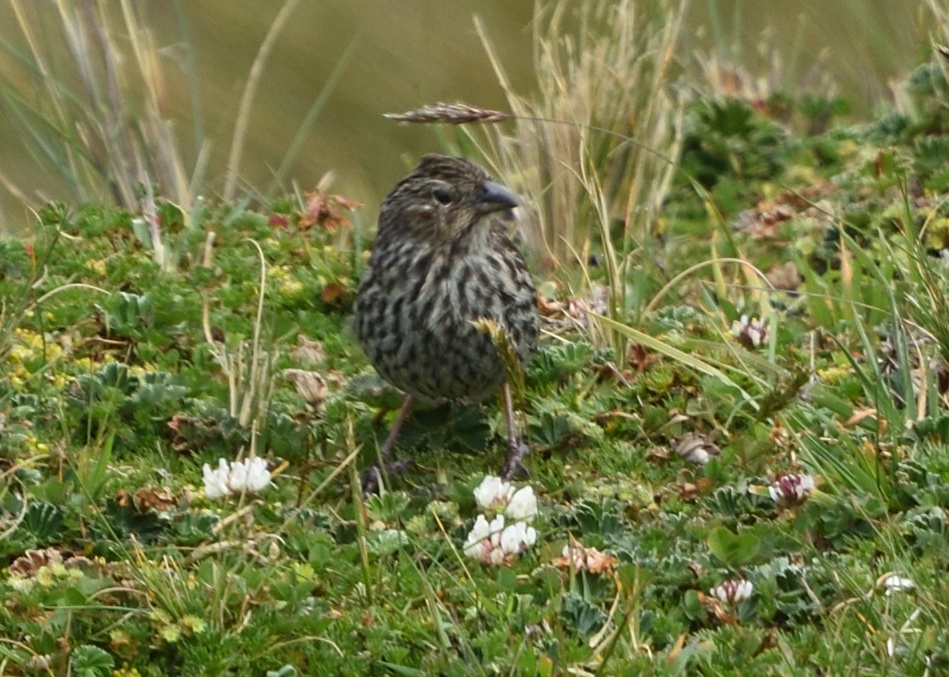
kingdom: Animalia
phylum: Chordata
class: Aves
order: Passeriformes
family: Thraupidae
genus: Geospizopsis
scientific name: Geospizopsis unicolor
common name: Plumbeous sierra-finch
